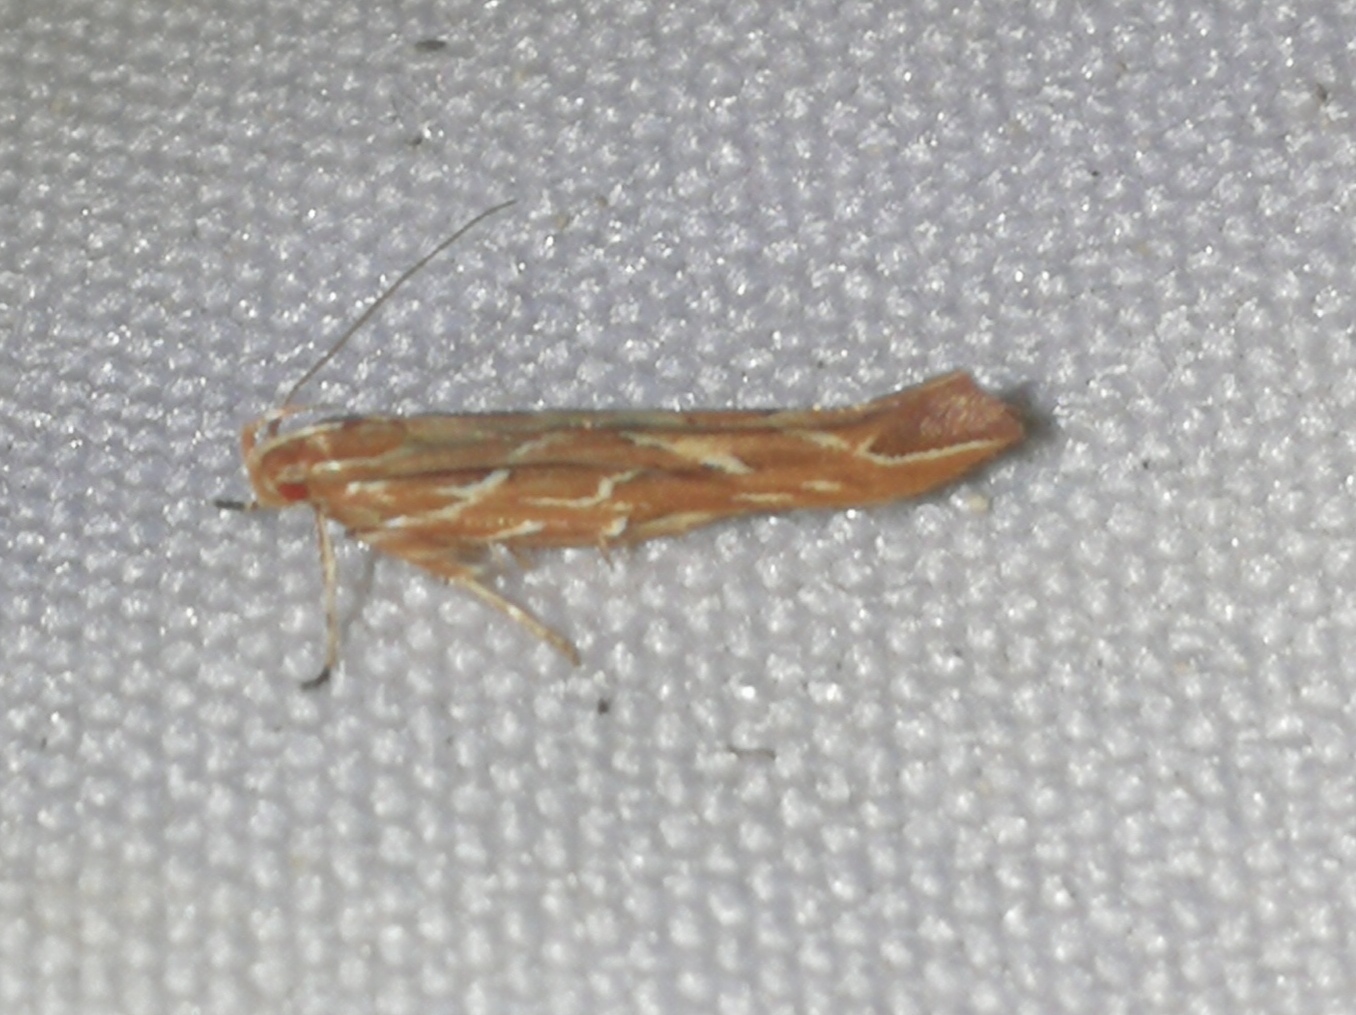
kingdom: Animalia
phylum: Arthropoda
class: Insecta
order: Lepidoptera
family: Cosmopterigidae
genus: Pyroderces
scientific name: Pyroderces argyrogrammos
